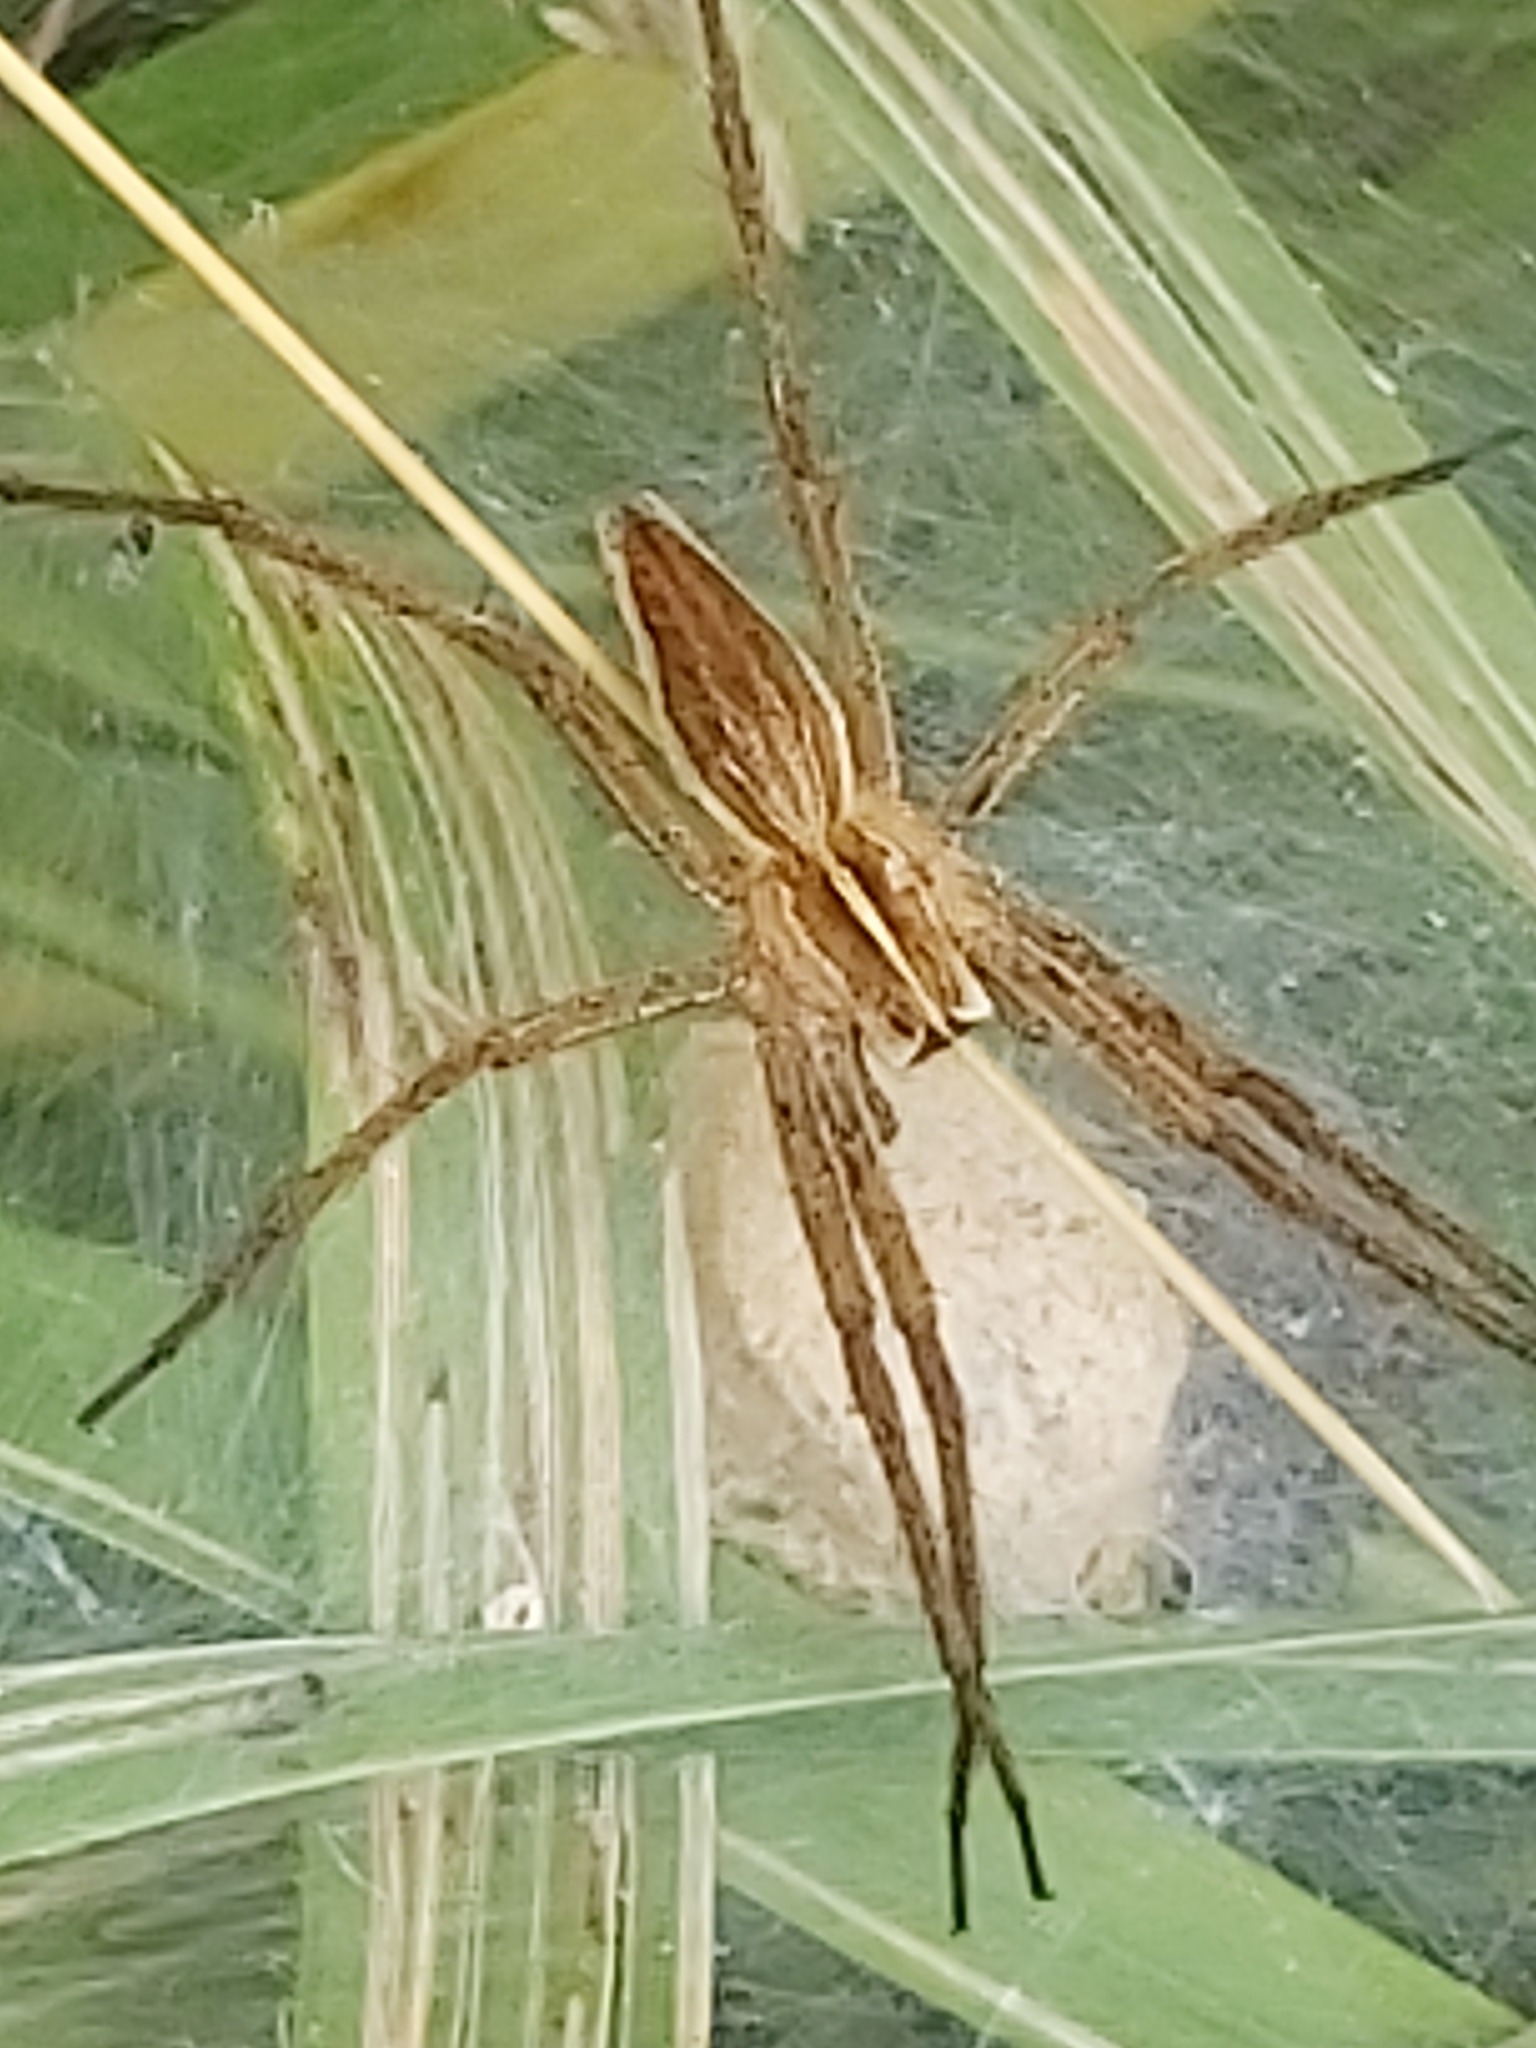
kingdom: Animalia
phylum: Arthropoda
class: Arachnida
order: Araneae
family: Pisauridae
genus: Pisaura
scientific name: Pisaura mirabilis
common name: Tent spider
